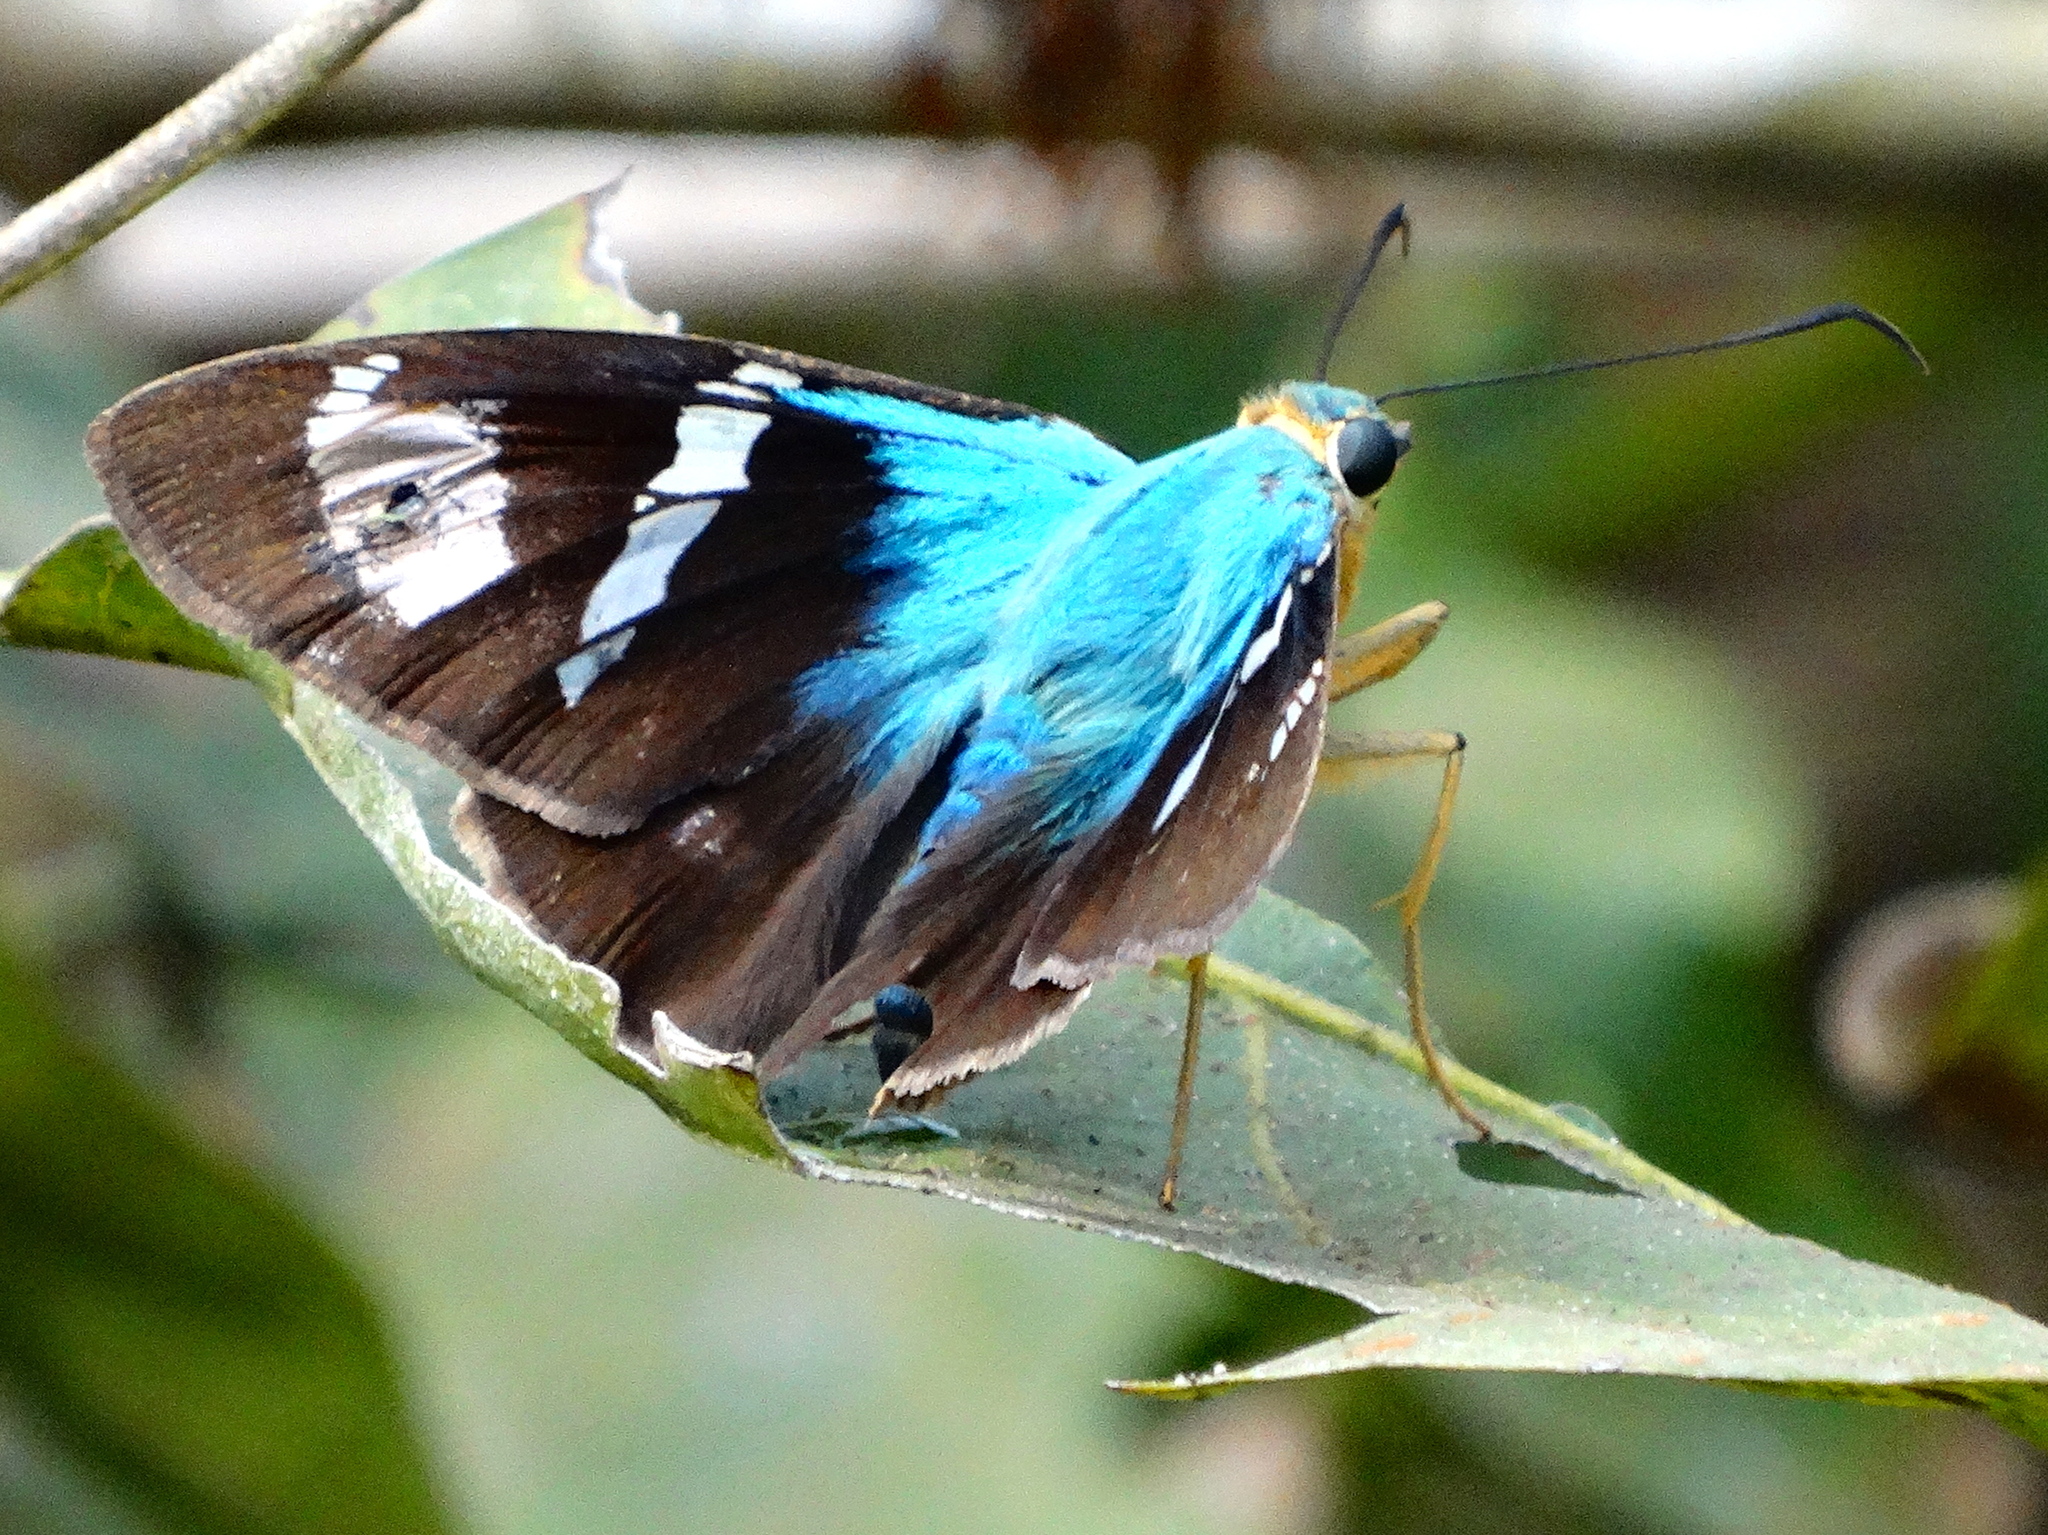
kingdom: Animalia
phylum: Arthropoda
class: Insecta
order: Lepidoptera
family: Hesperiidae
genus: Astraptes
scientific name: Astraptes fulgerator
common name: Two-barred flasher
